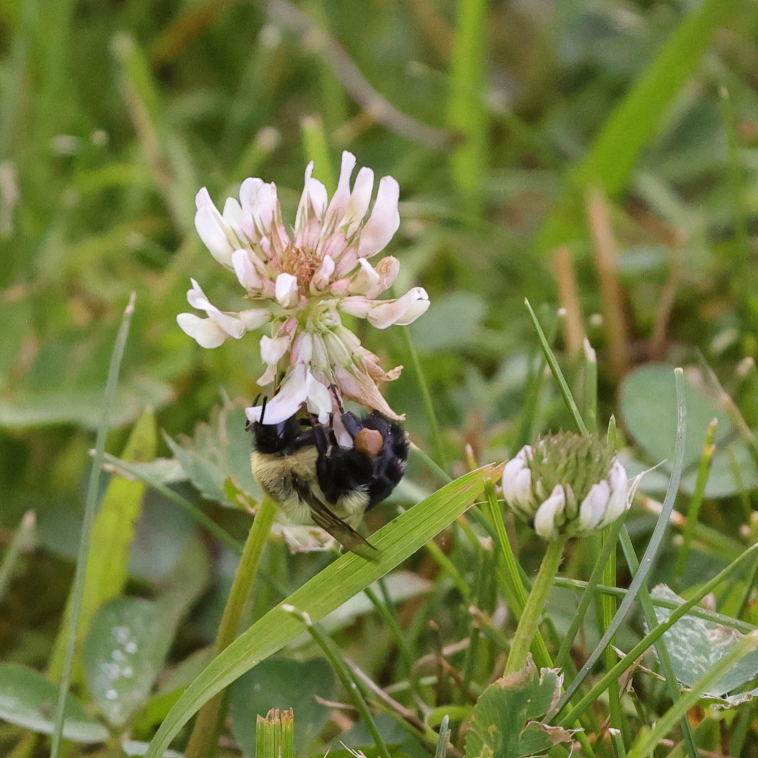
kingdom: Animalia
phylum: Arthropoda
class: Insecta
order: Hymenoptera
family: Apidae
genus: Bombus
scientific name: Bombus impatiens
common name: Common eastern bumble bee
